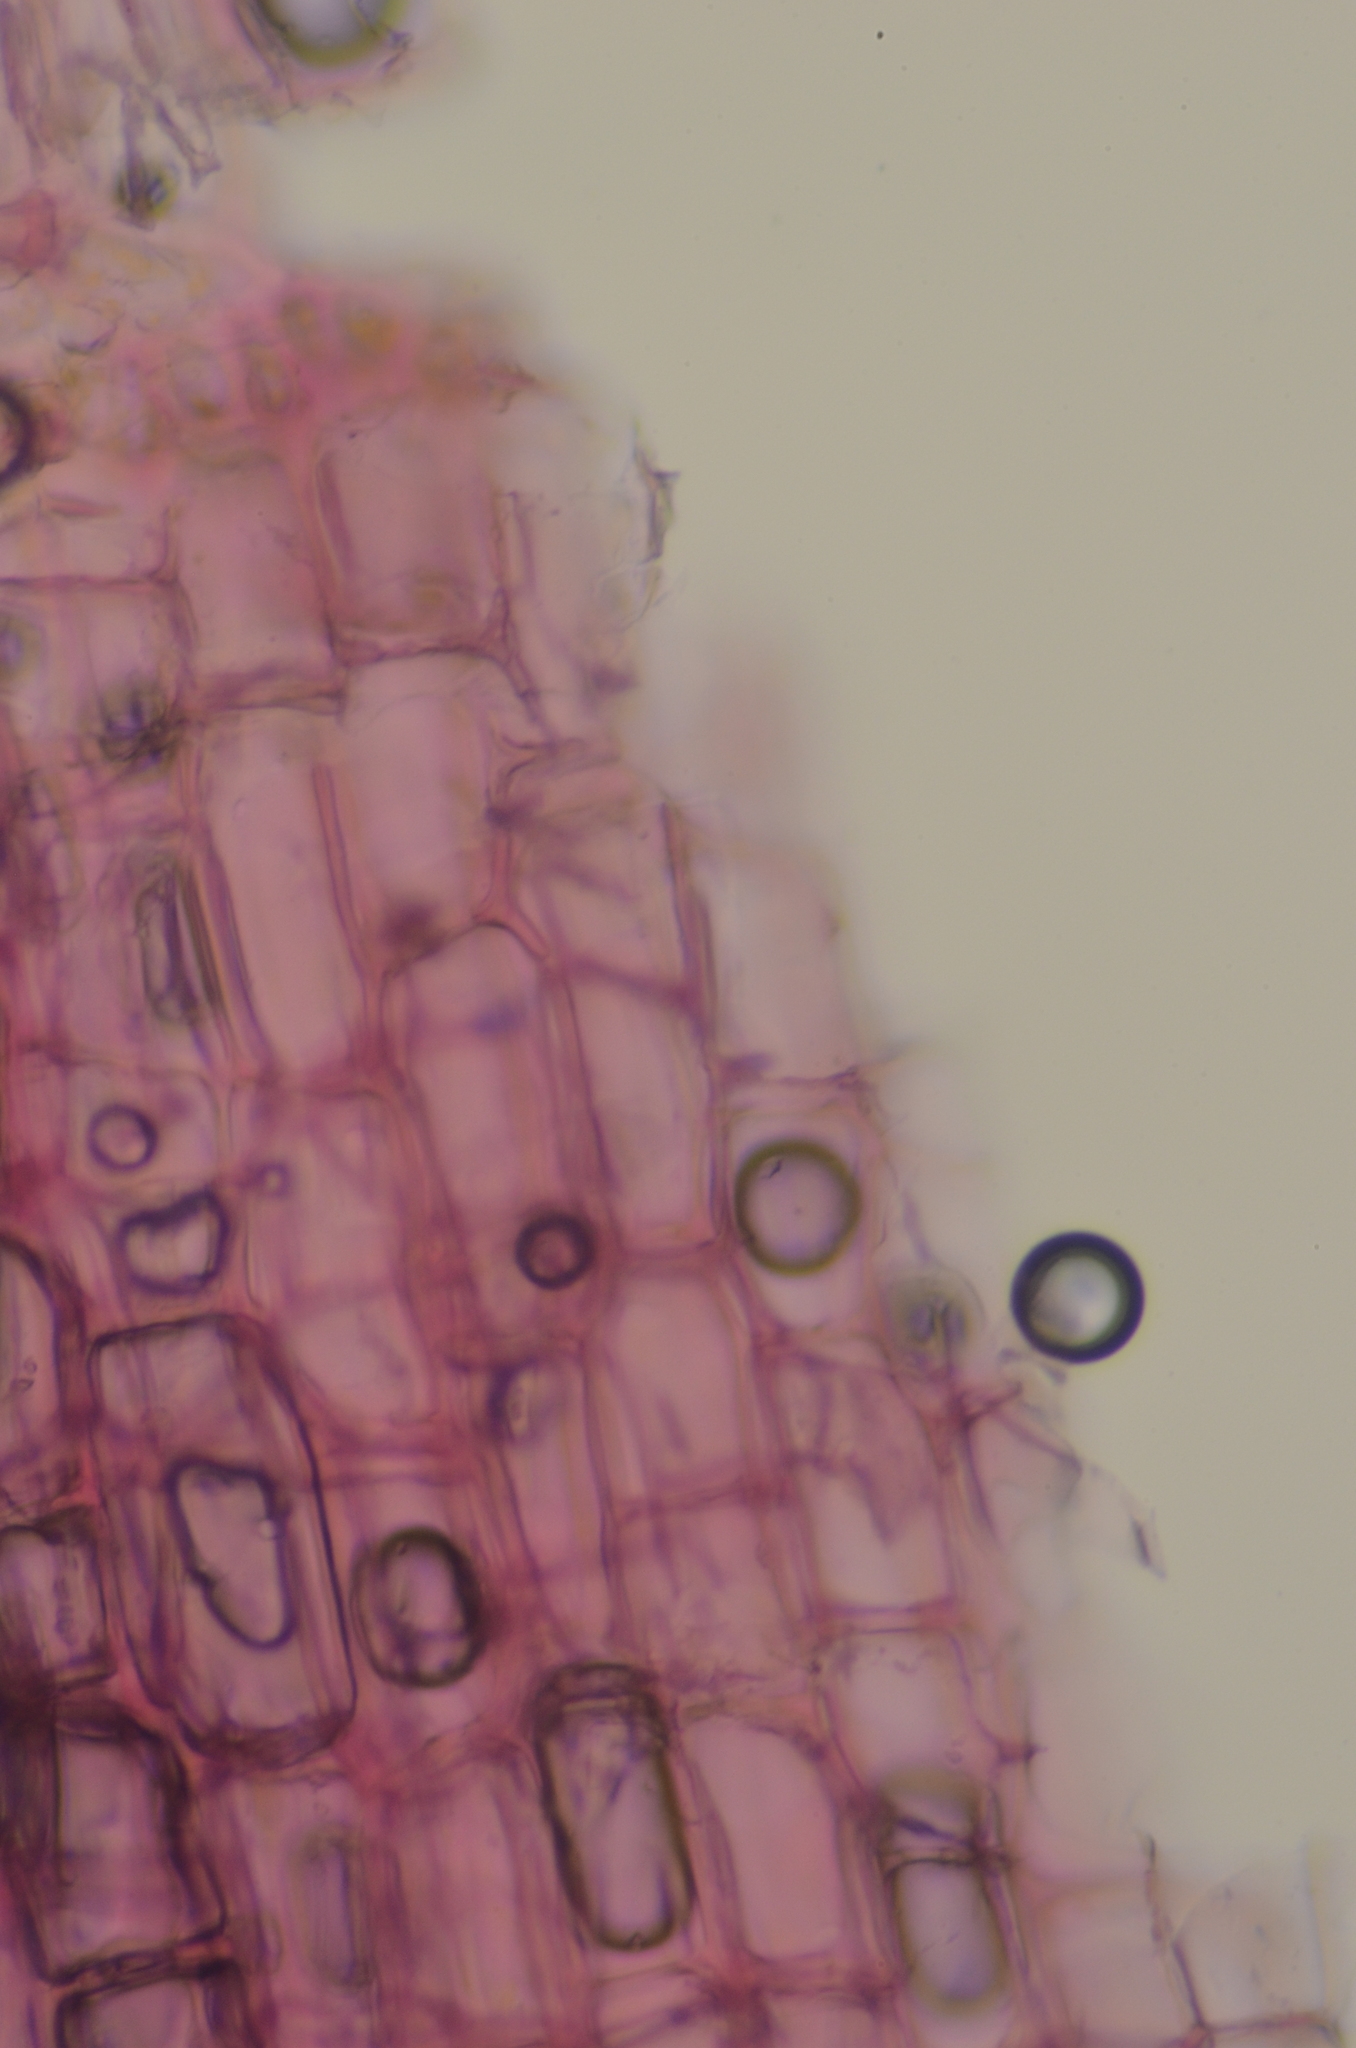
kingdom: Plantae
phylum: Bryophyta
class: Sphagnopsida
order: Sphagnales
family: Sphagnaceae
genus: Sphagnum
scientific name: Sphagnum russowii
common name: Russow's peat moss
